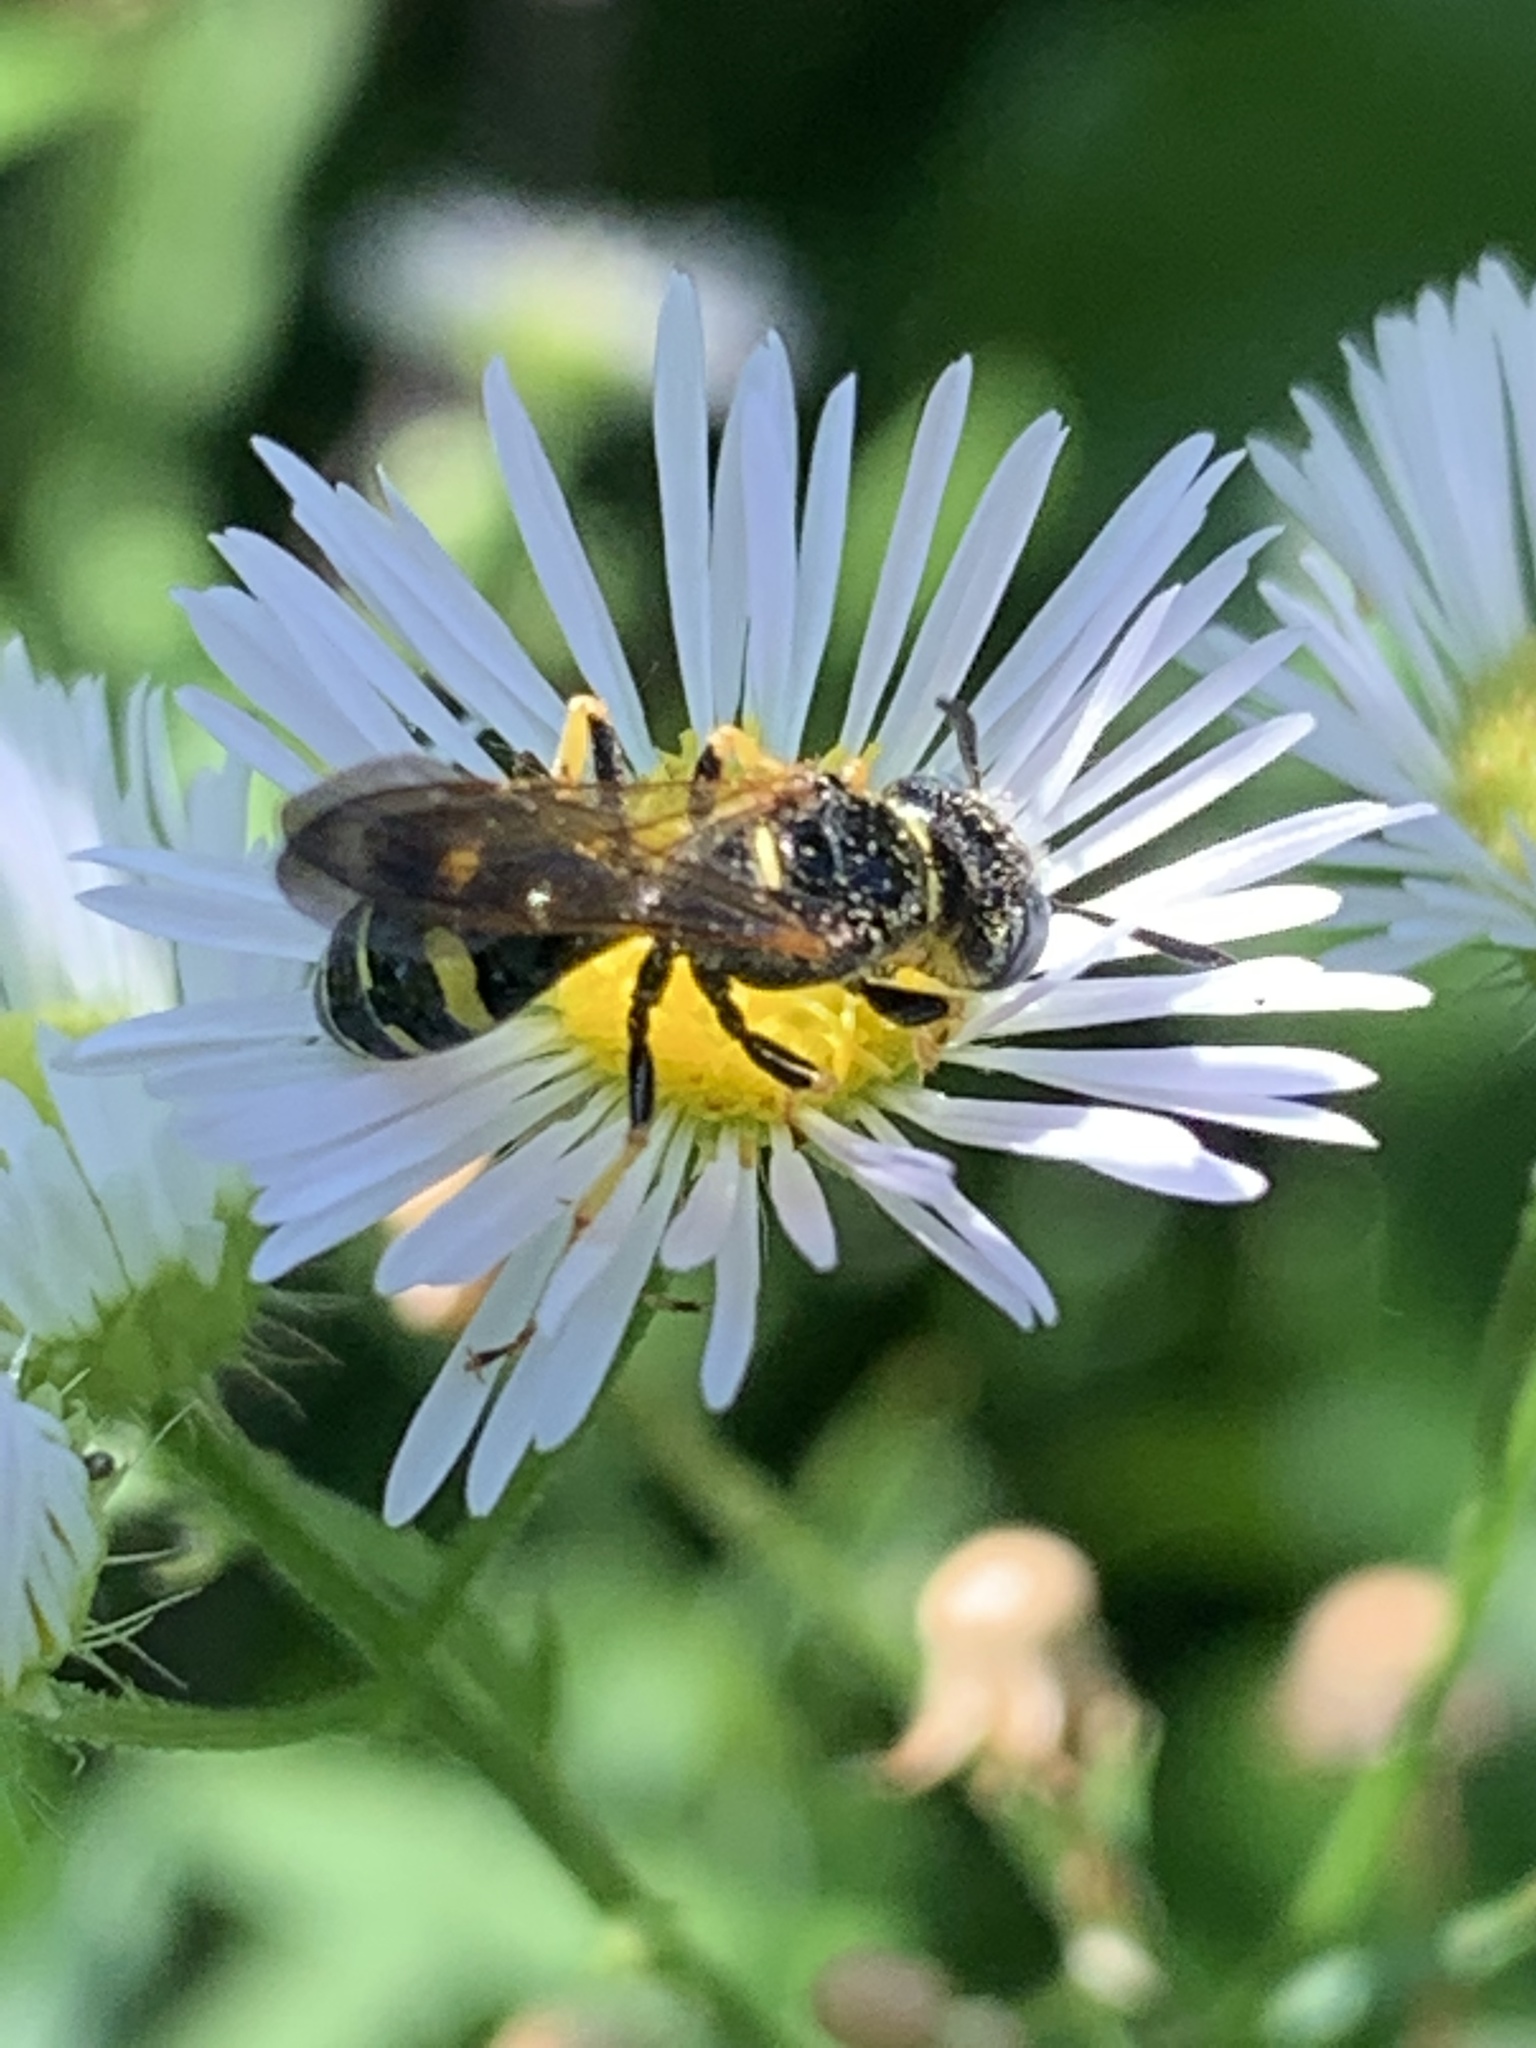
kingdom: Animalia
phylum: Arthropoda
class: Insecta
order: Hymenoptera
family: Crabronidae
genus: Philanthus
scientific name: Philanthus bilunatus
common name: Two moons beewolf
